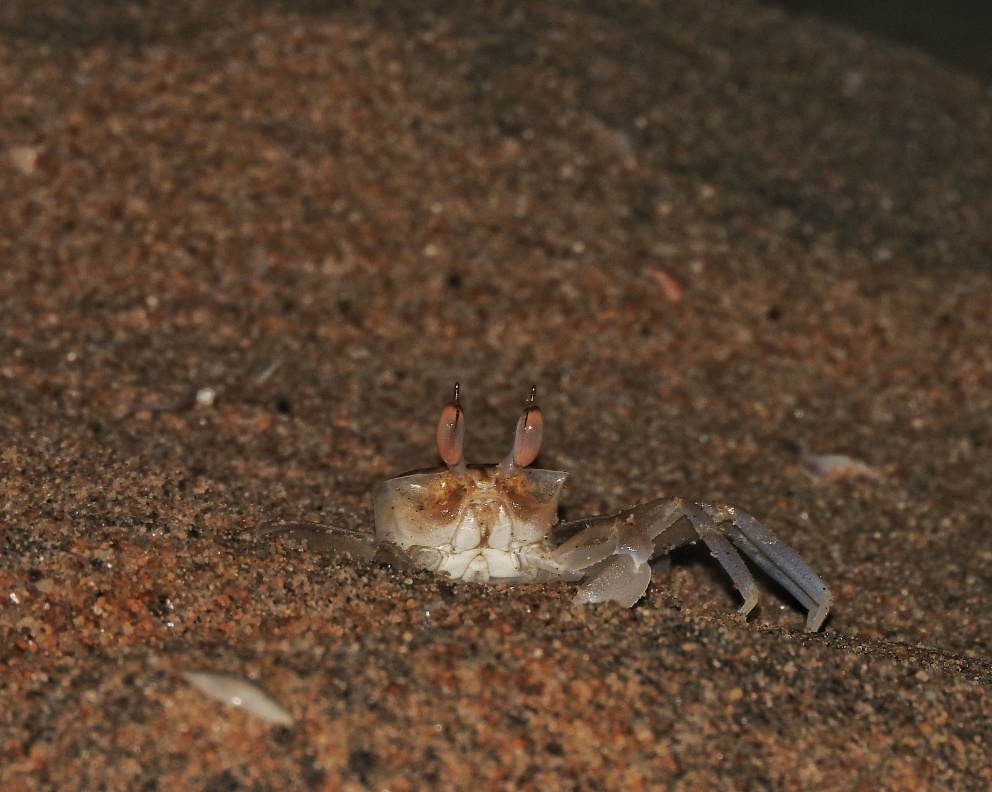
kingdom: Animalia
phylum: Arthropoda
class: Malacostraca
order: Decapoda
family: Ocypodidae
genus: Ocypode
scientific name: Ocypode brevicornis
